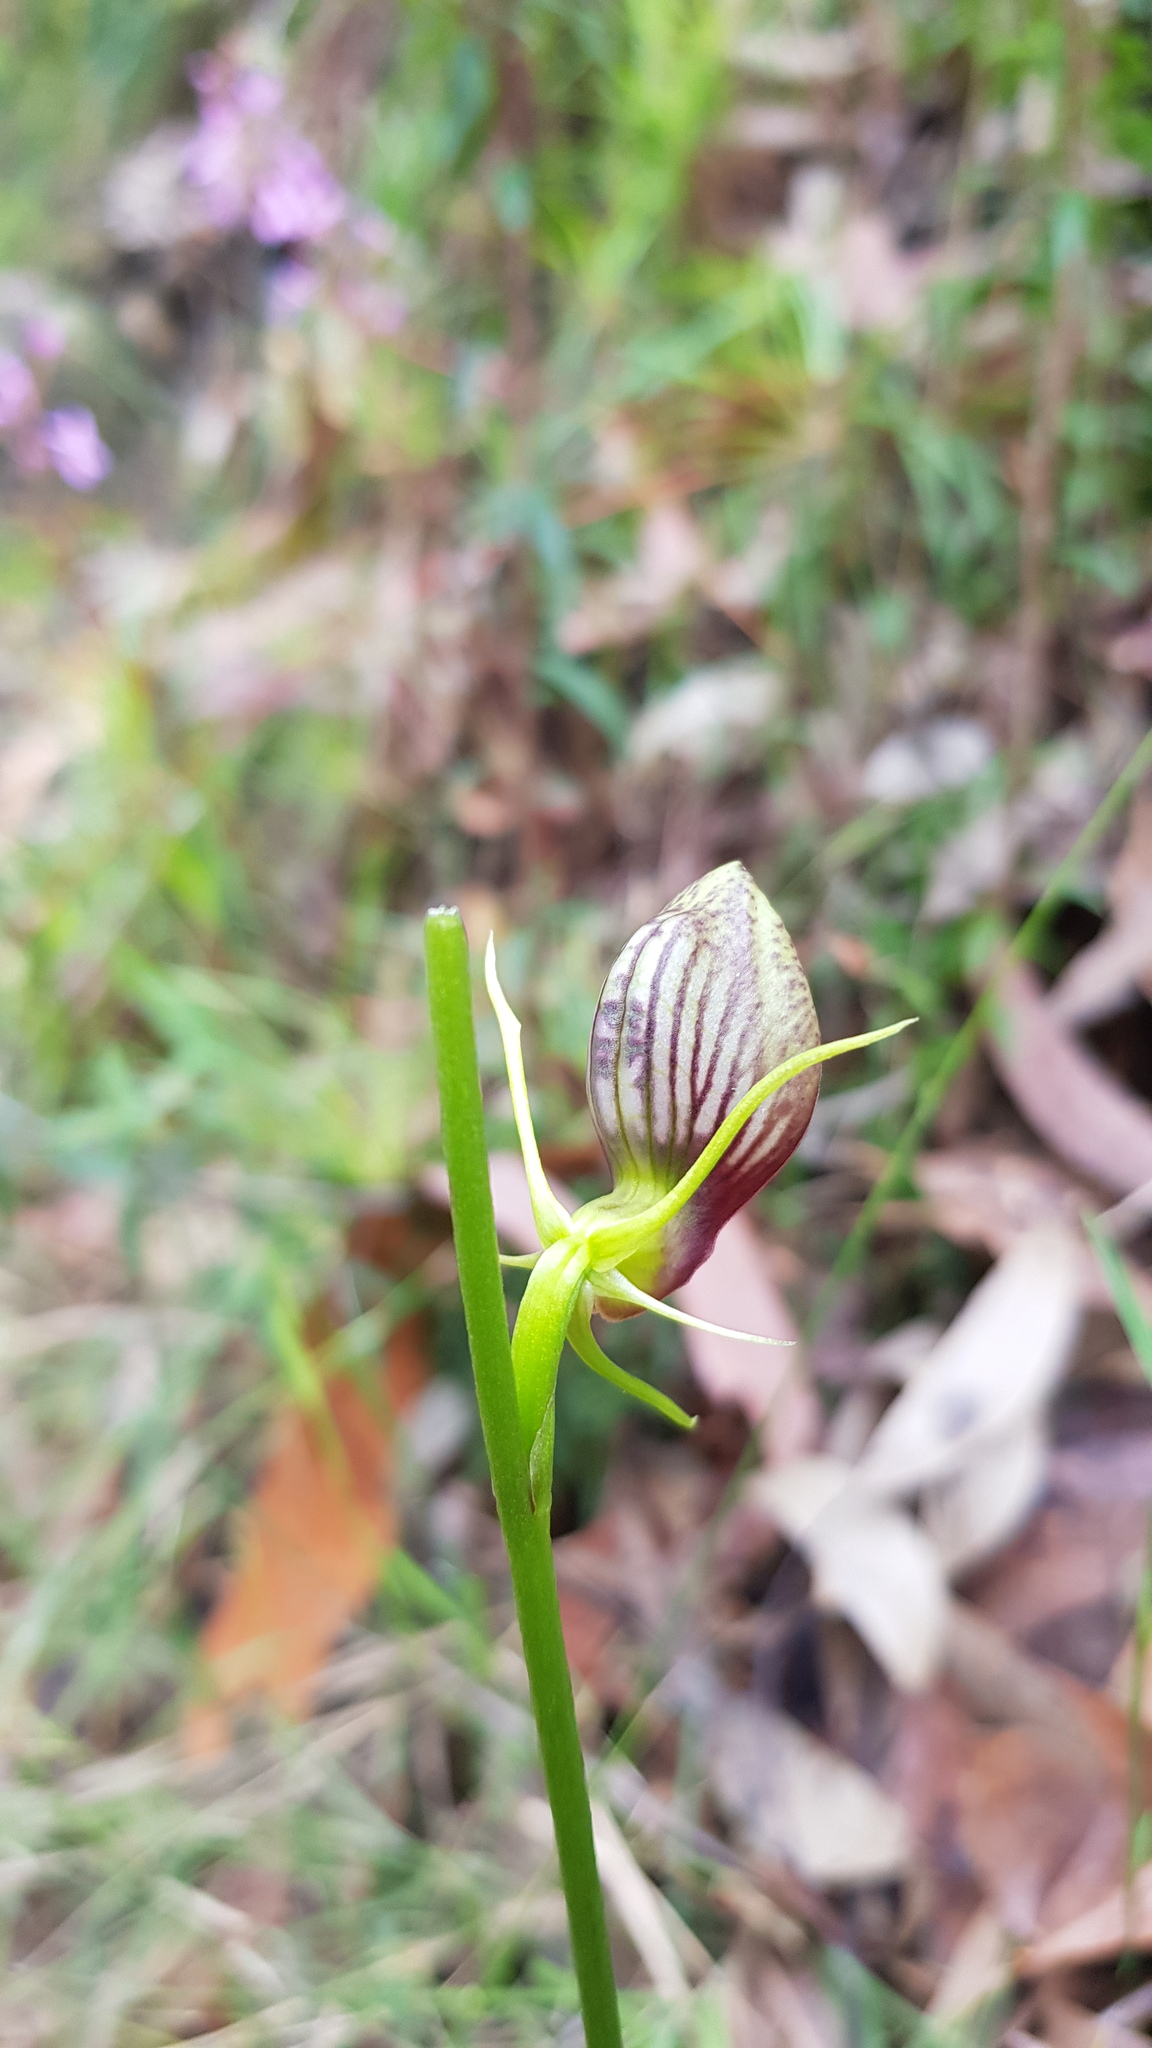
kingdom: Plantae
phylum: Tracheophyta
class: Liliopsida
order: Asparagales
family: Orchidaceae
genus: Cryptostylis
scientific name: Cryptostylis erecta
